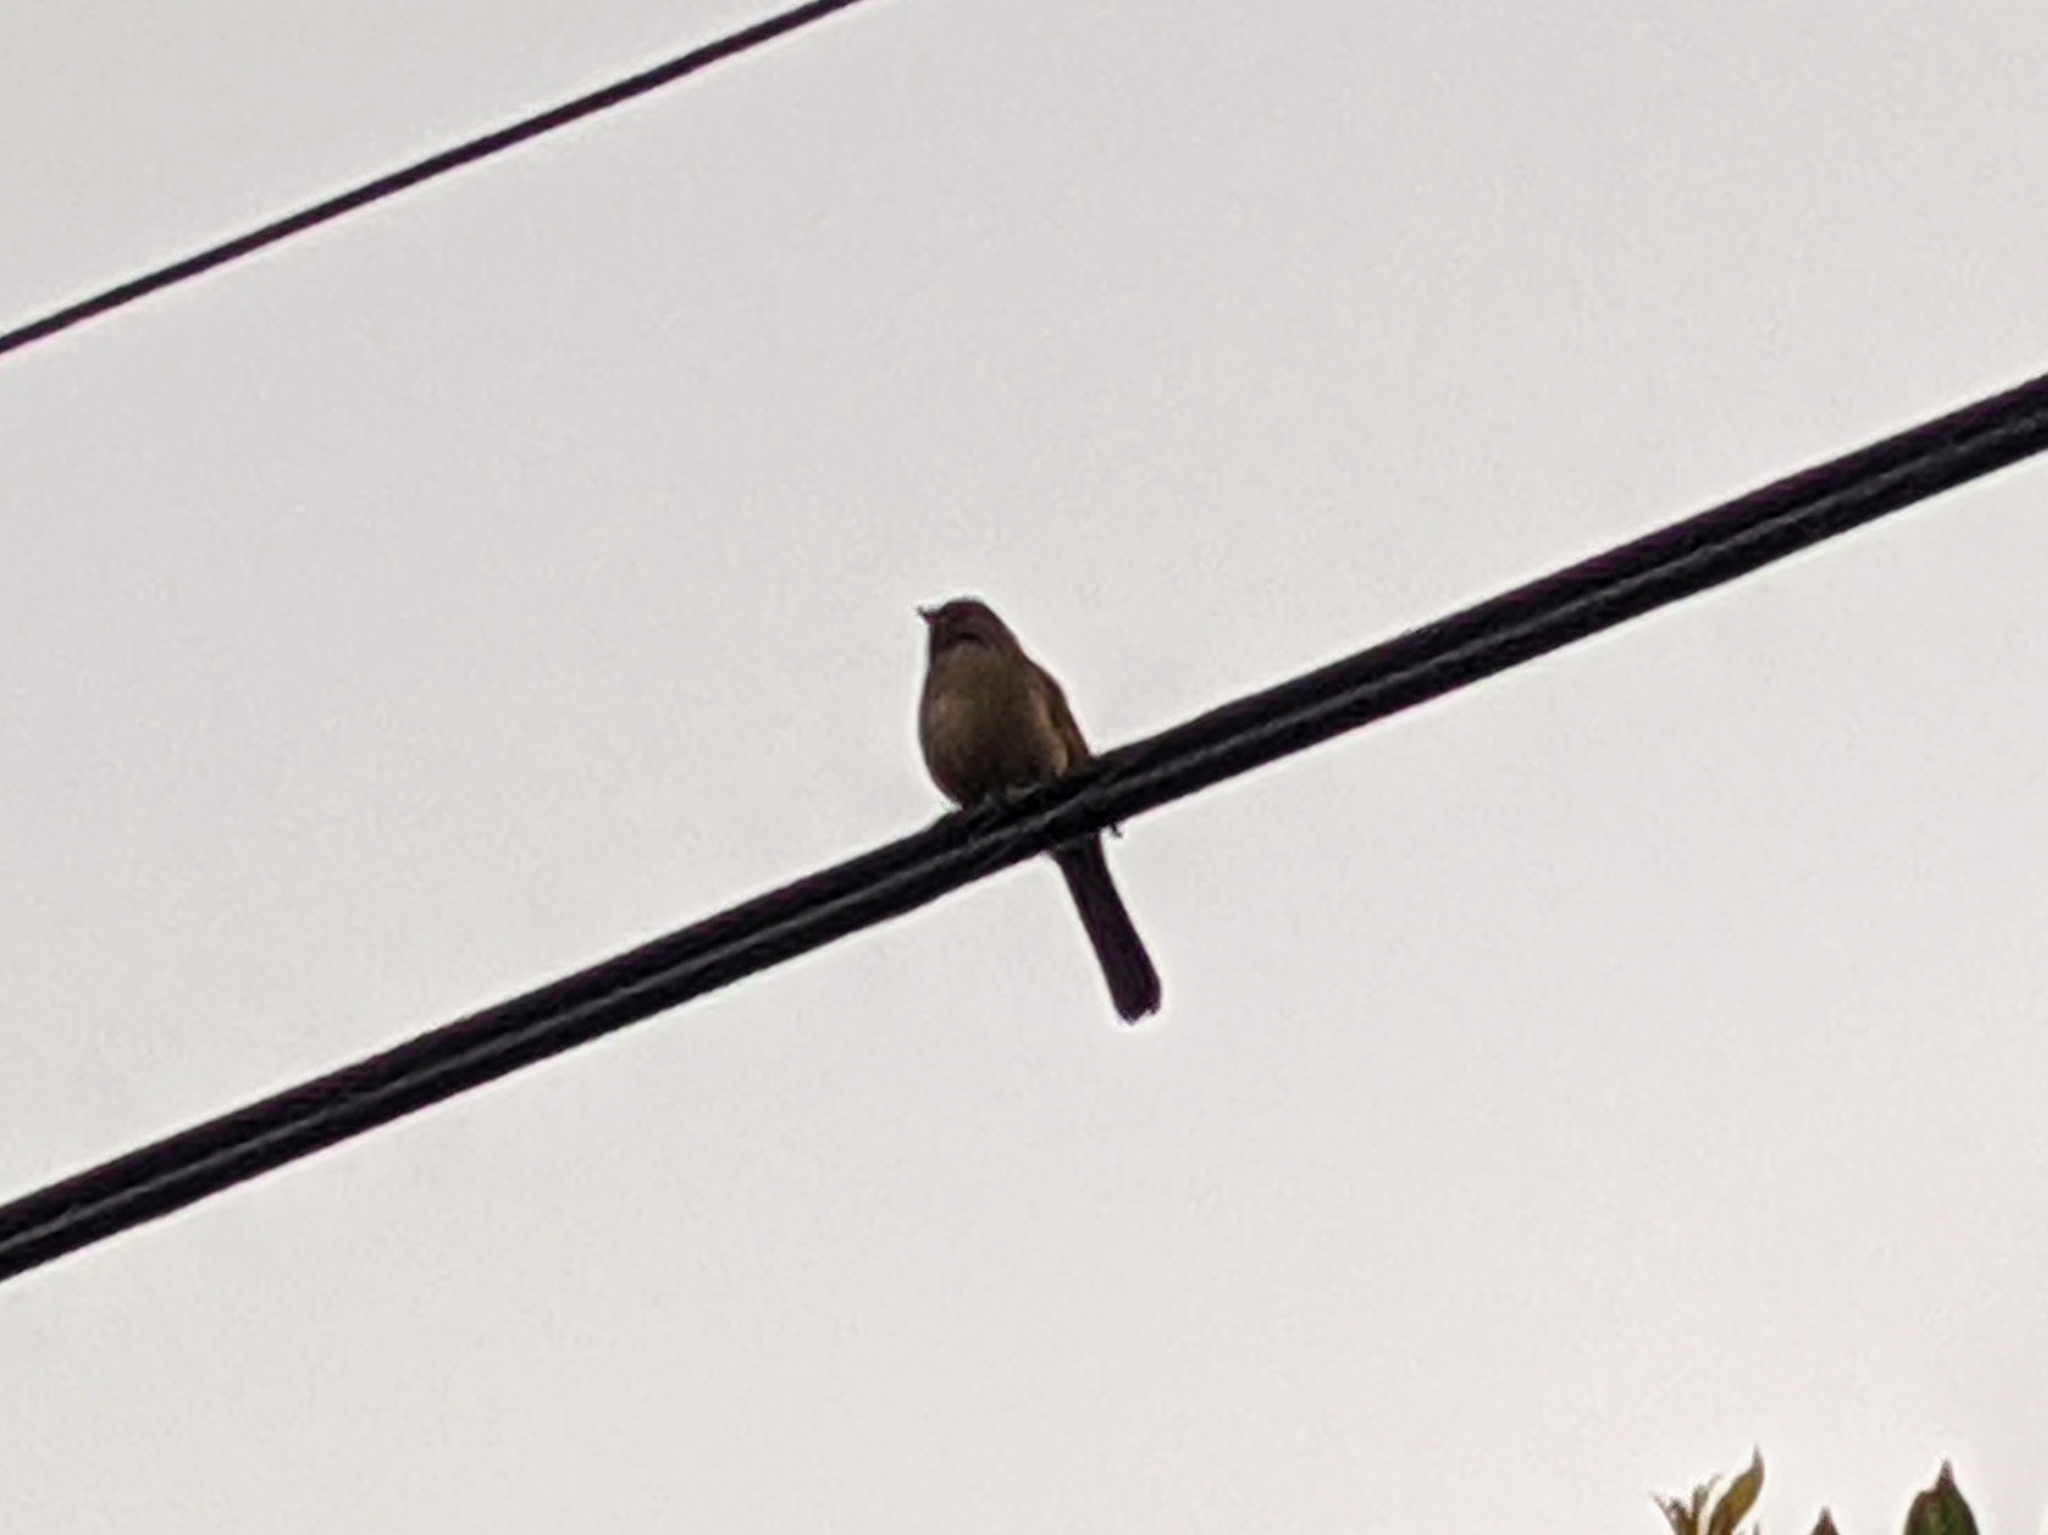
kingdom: Animalia
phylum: Chordata
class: Aves
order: Passeriformes
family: Passerellidae
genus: Melozone
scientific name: Melozone crissalis
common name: California towhee
